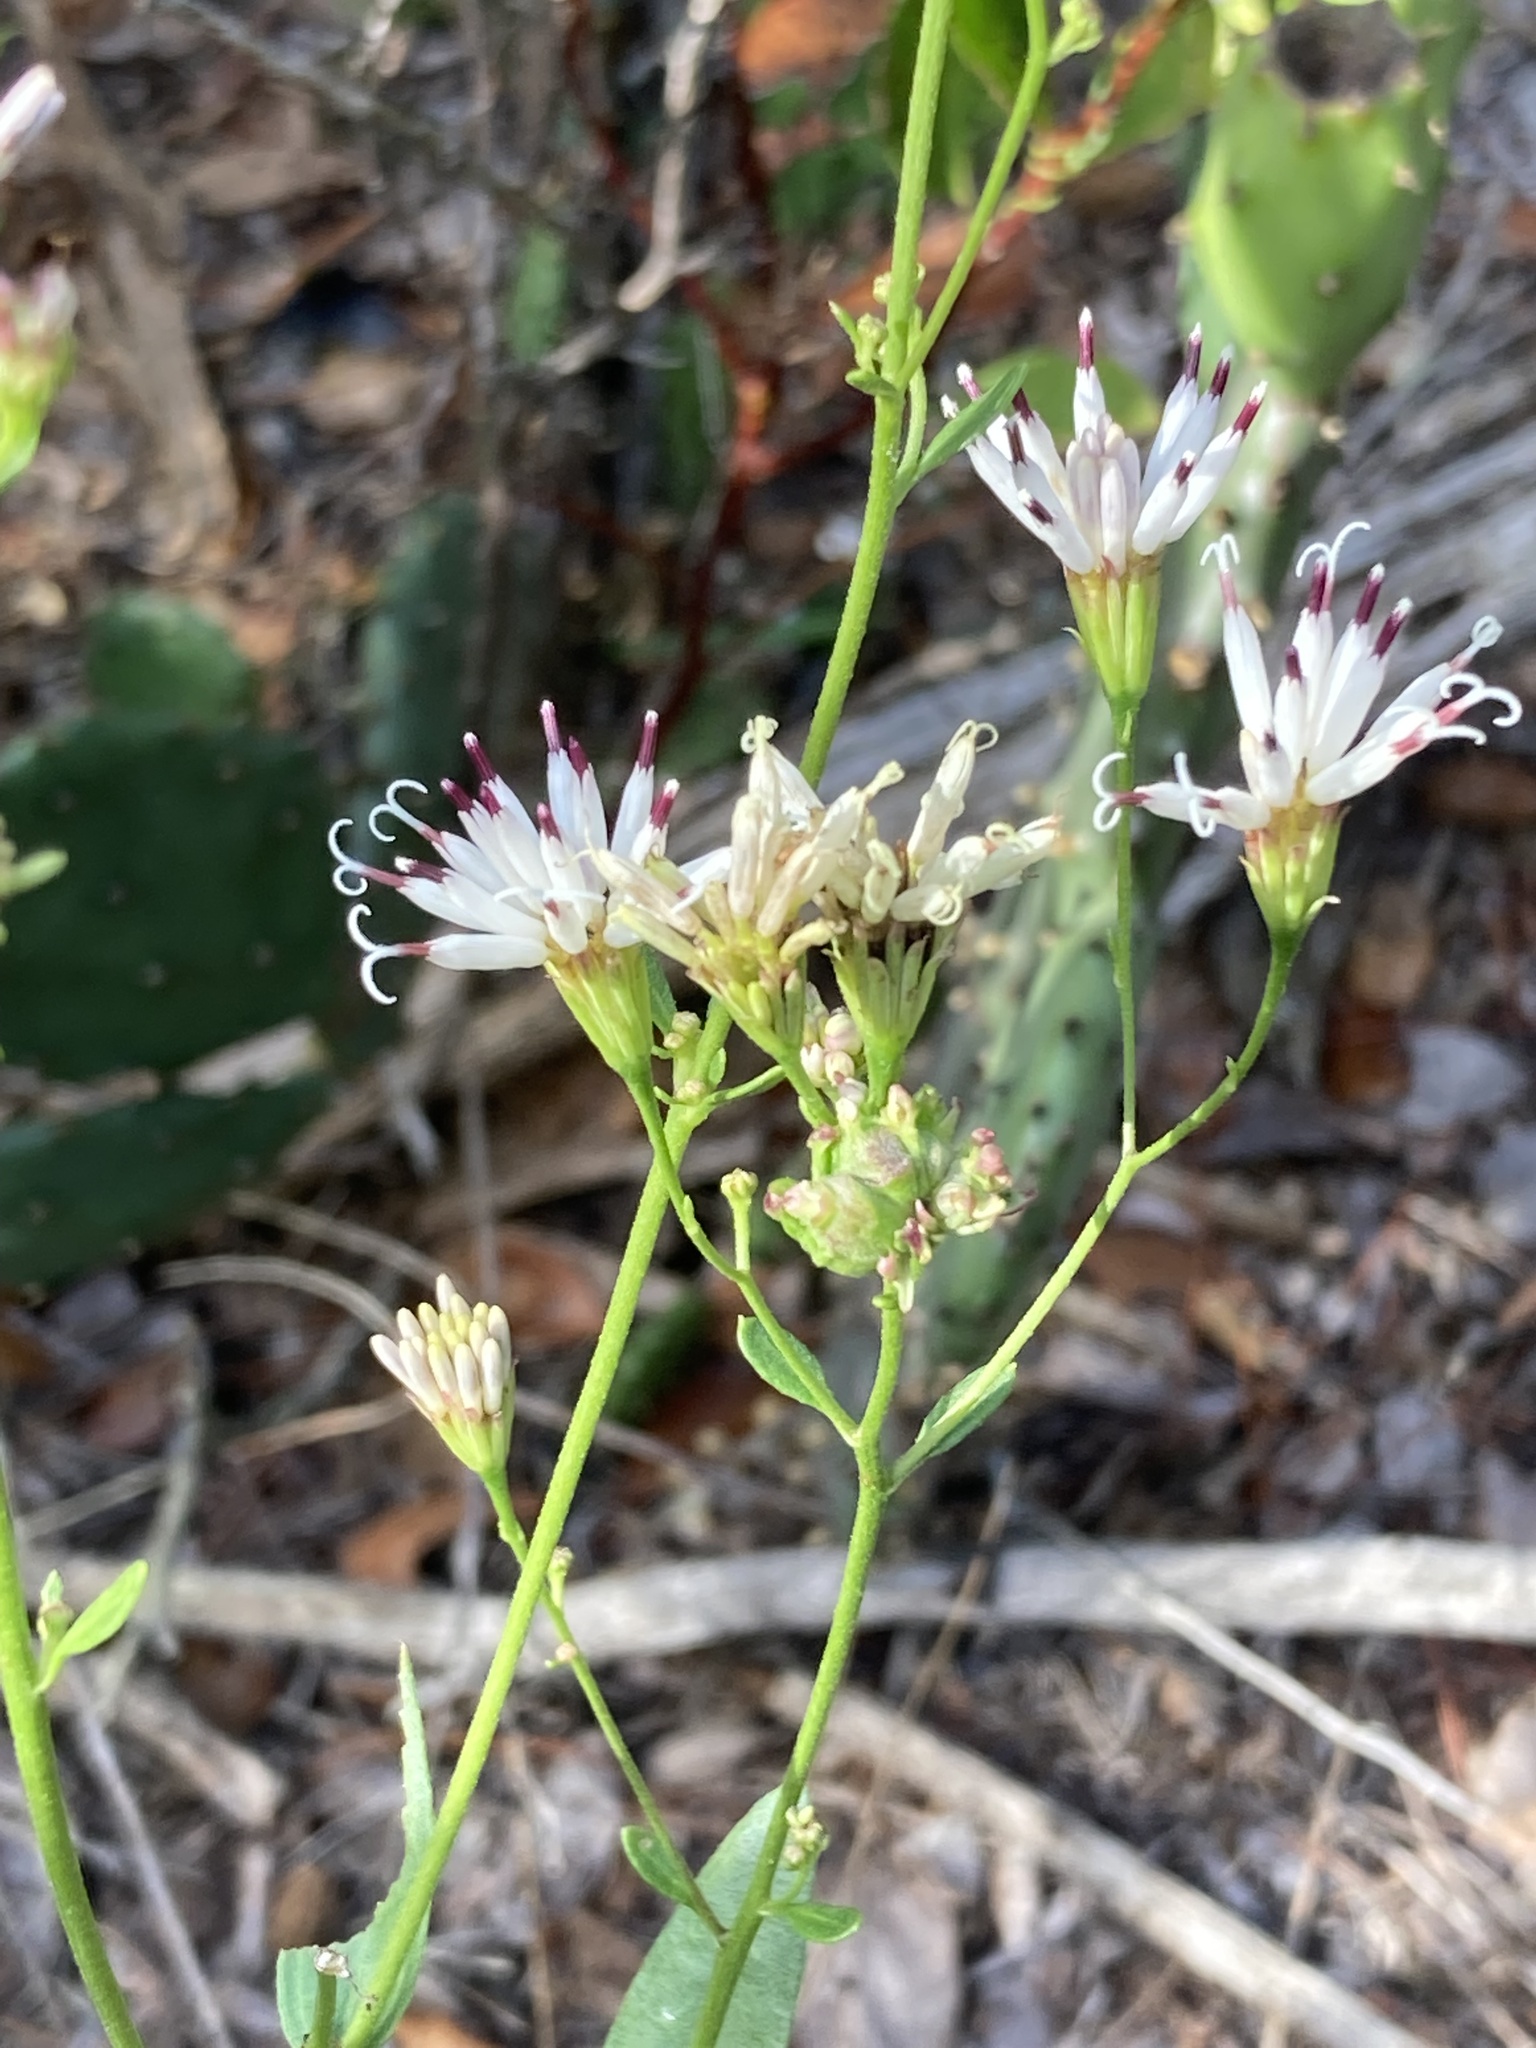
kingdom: Plantae
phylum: Tracheophyta
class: Magnoliopsida
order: Asterales
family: Asteraceae
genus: Palafoxia
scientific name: Palafoxia feayi
